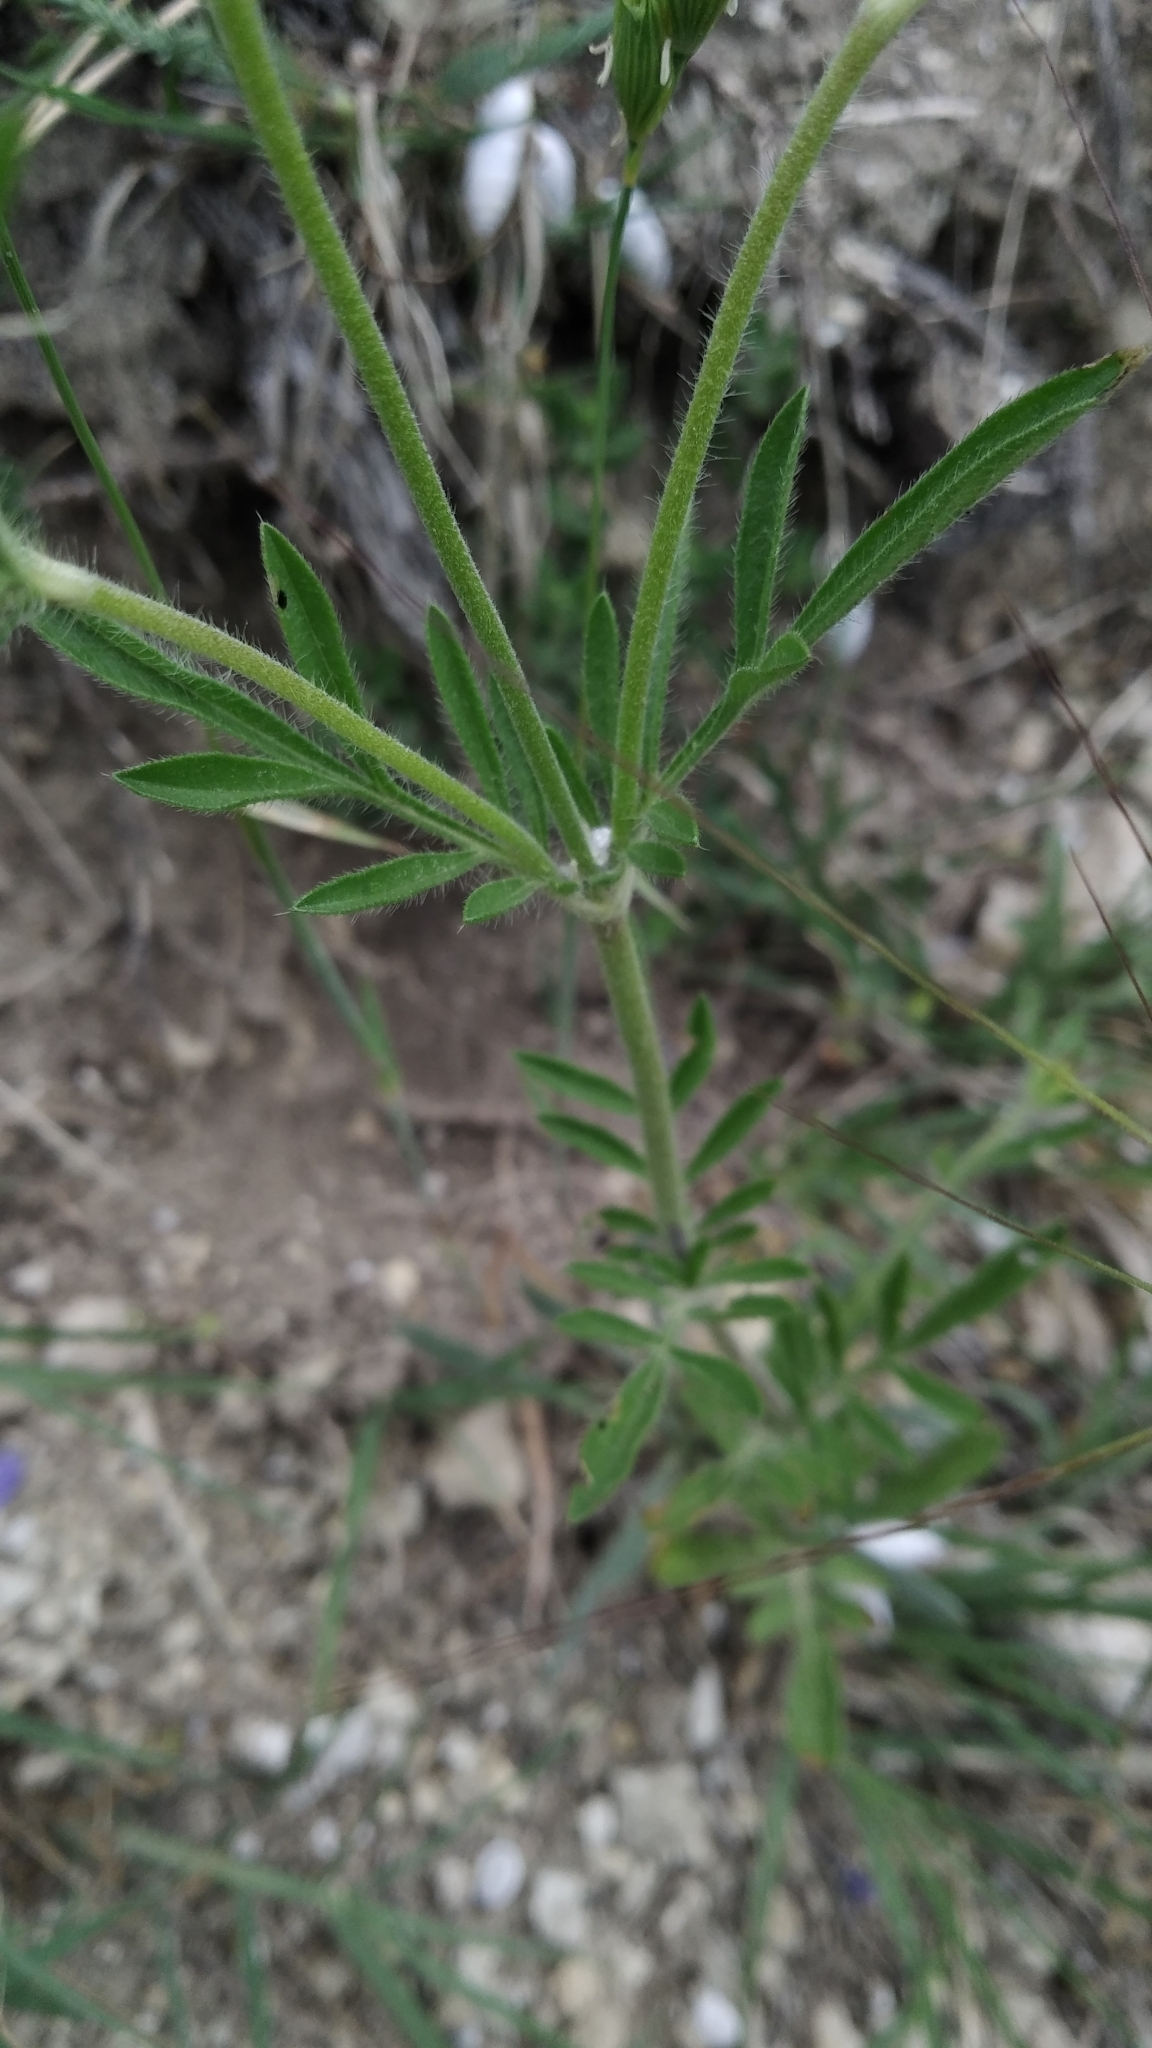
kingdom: Plantae
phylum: Tracheophyta
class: Magnoliopsida
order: Dipsacales
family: Caprifoliaceae
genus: Lomelosia
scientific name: Lomelosia micrantha
